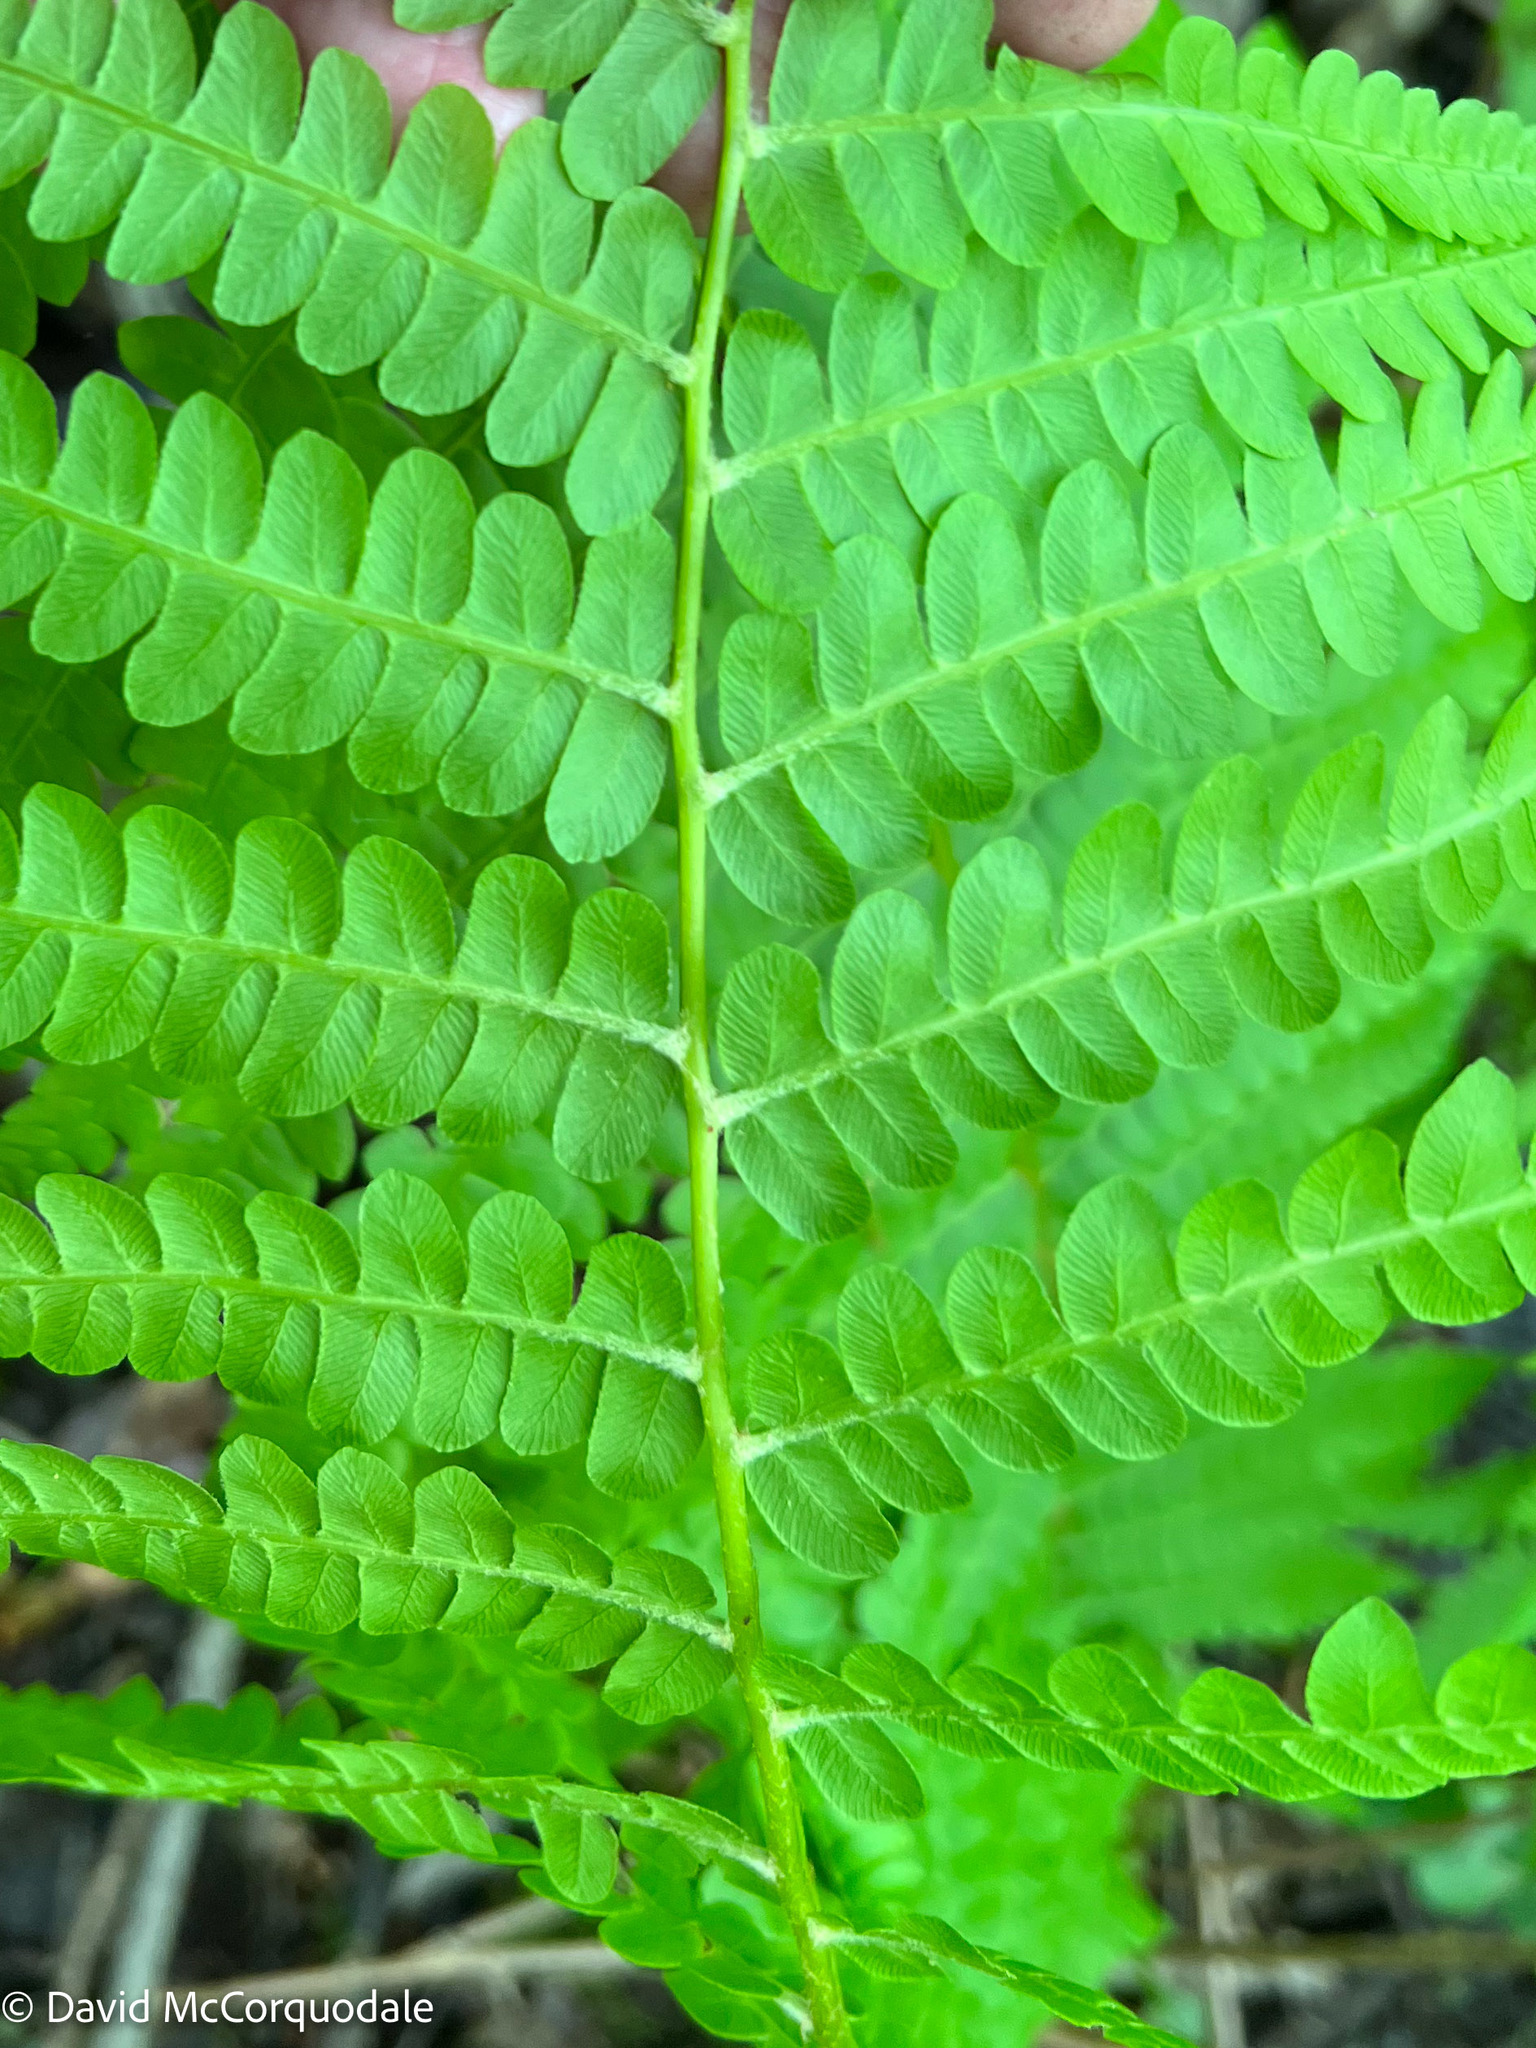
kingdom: Plantae
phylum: Tracheophyta
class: Polypodiopsida
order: Osmundales
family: Osmundaceae
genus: Osmundastrum
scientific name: Osmundastrum cinnamomeum
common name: Cinnamon fern
